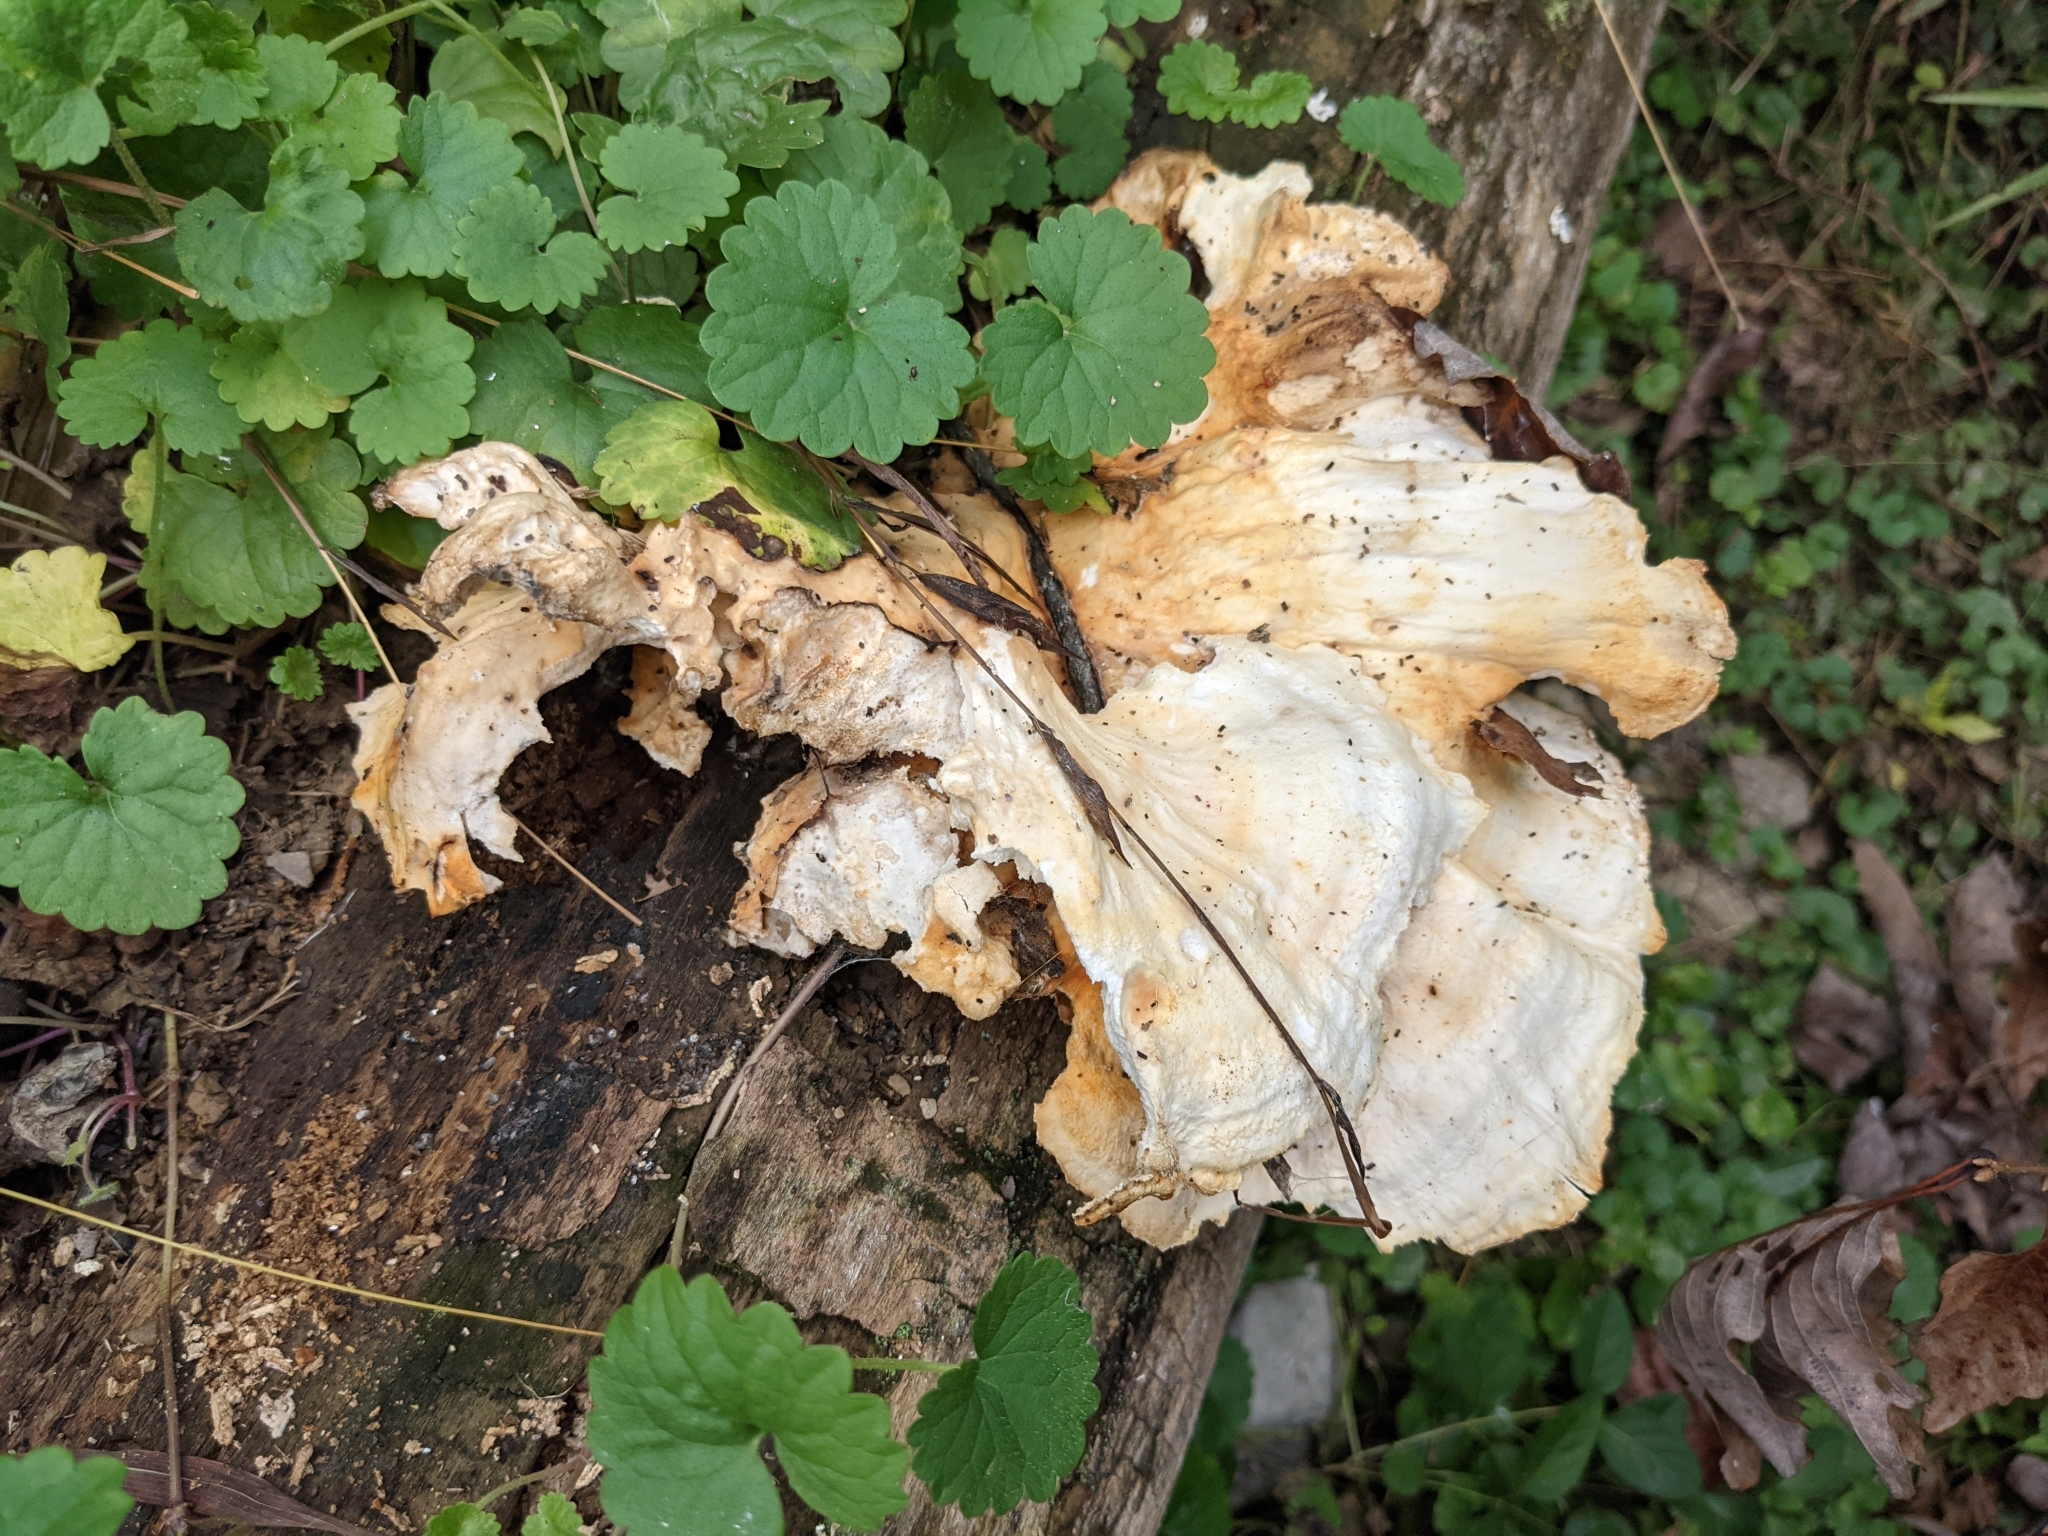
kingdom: Fungi
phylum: Basidiomycota
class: Agaricomycetes
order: Polyporales
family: Laetiporaceae
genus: Laetiporus
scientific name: Laetiporus sulphureus
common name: Chicken of the woods
